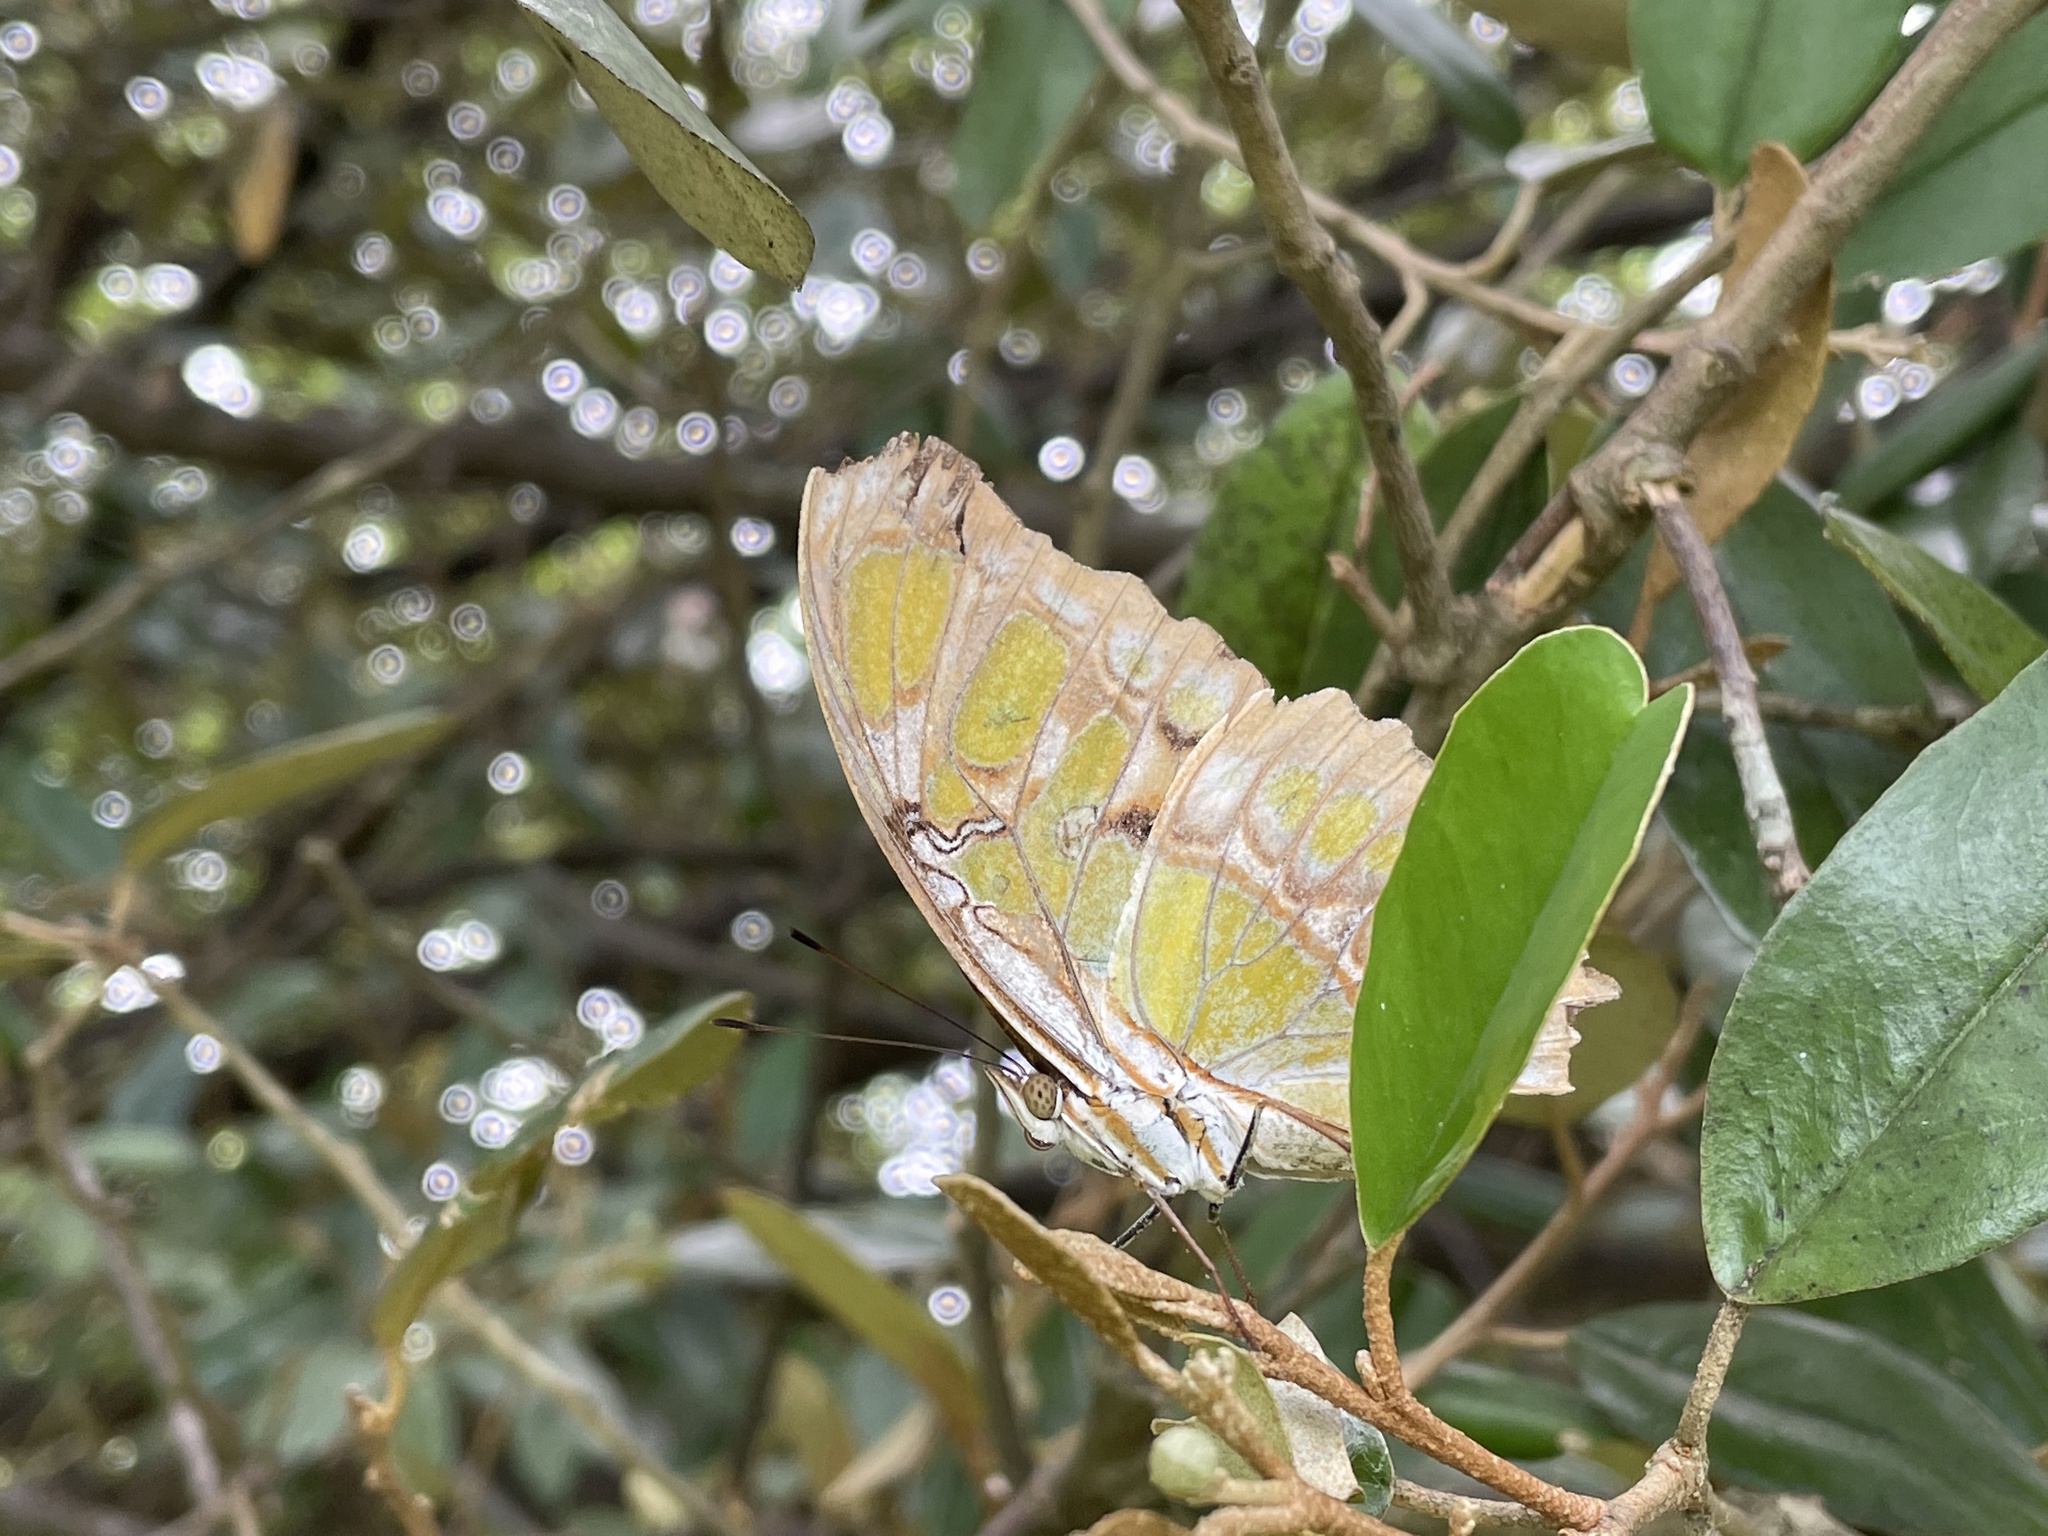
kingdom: Animalia
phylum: Arthropoda
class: Insecta
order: Lepidoptera
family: Nymphalidae
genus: Siproeta
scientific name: Siproeta stelenes
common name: Malachite
